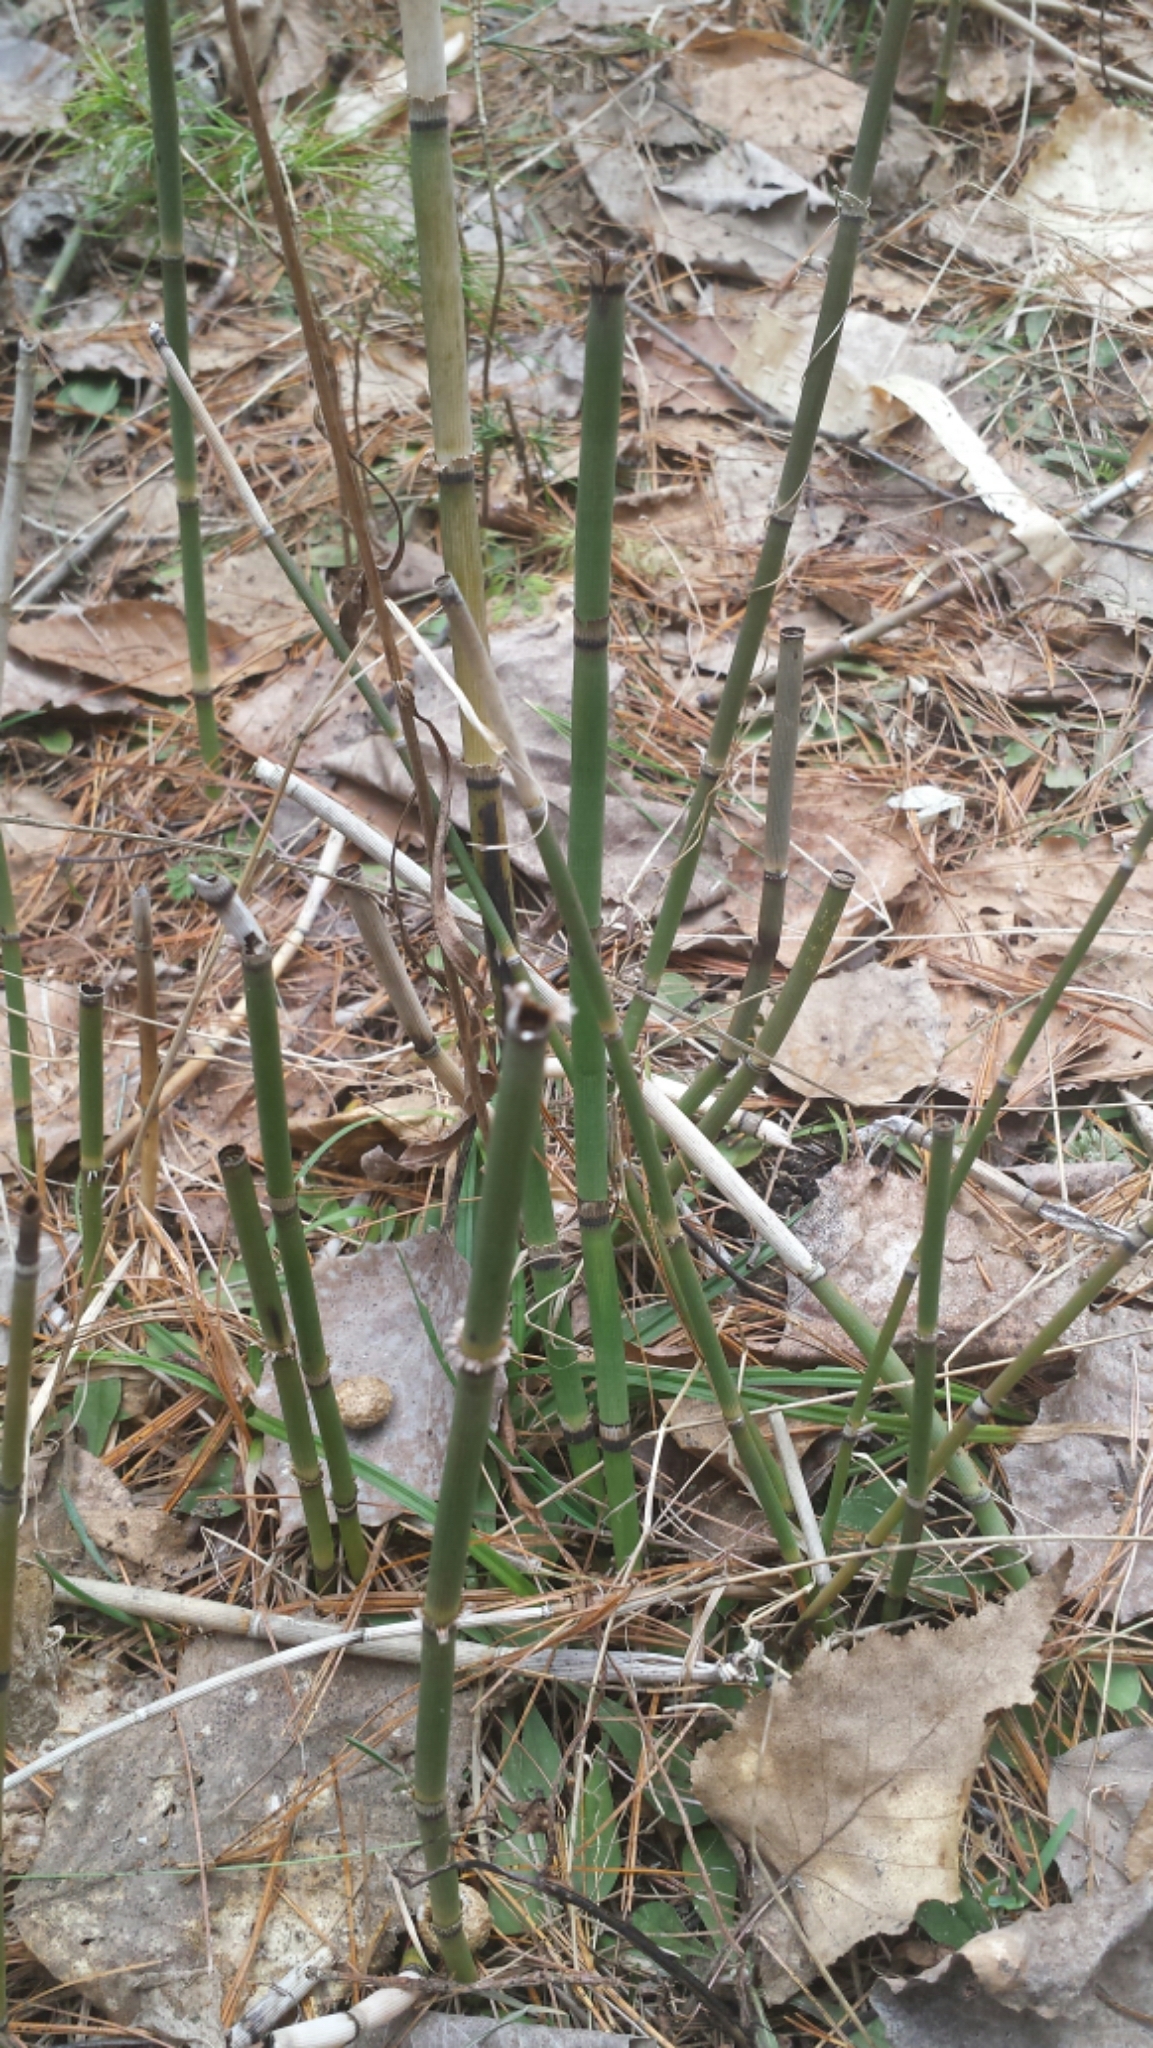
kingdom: Plantae
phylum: Tracheophyta
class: Polypodiopsida
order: Equisetales
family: Equisetaceae
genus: Equisetum
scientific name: Equisetum hyemale
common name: Rough horsetail
